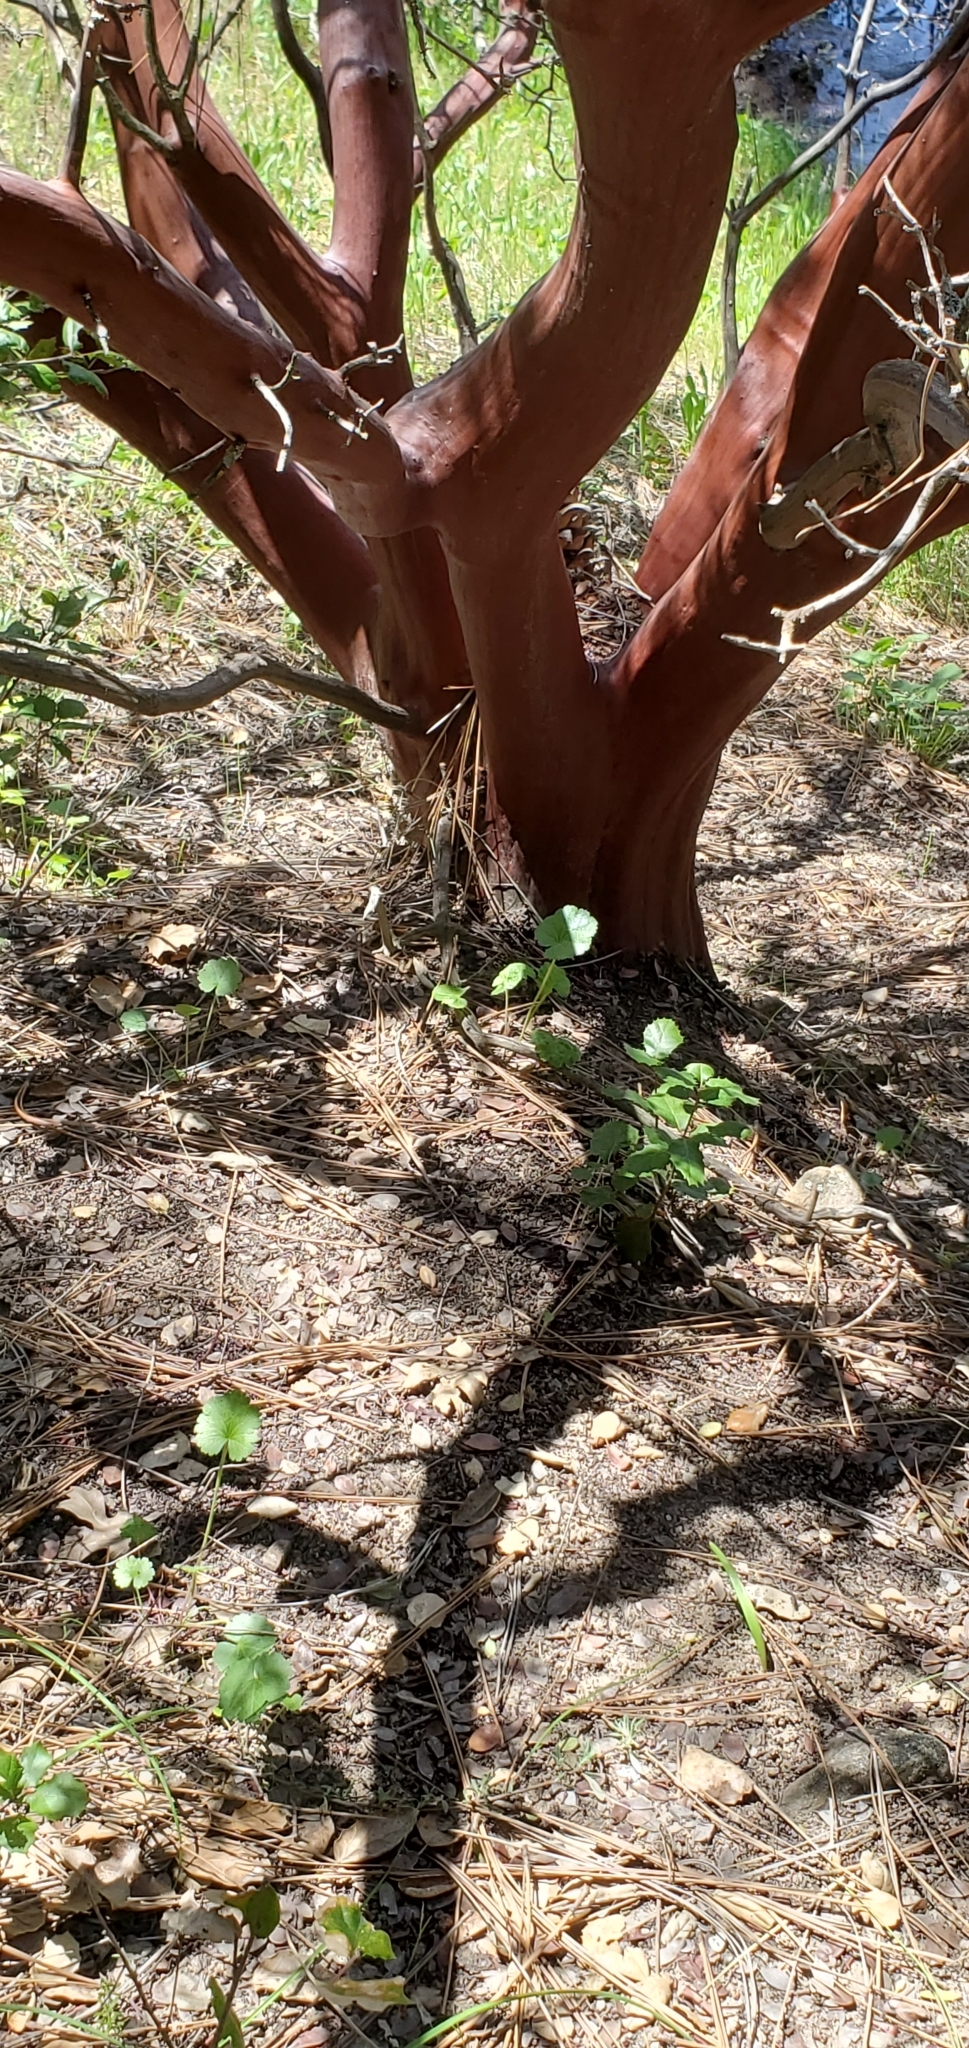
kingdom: Plantae
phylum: Tracheophyta
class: Magnoliopsida
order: Ericales
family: Ericaceae
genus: Arctostaphylos
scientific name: Arctostaphylos pungens
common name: Mexican manzanita
